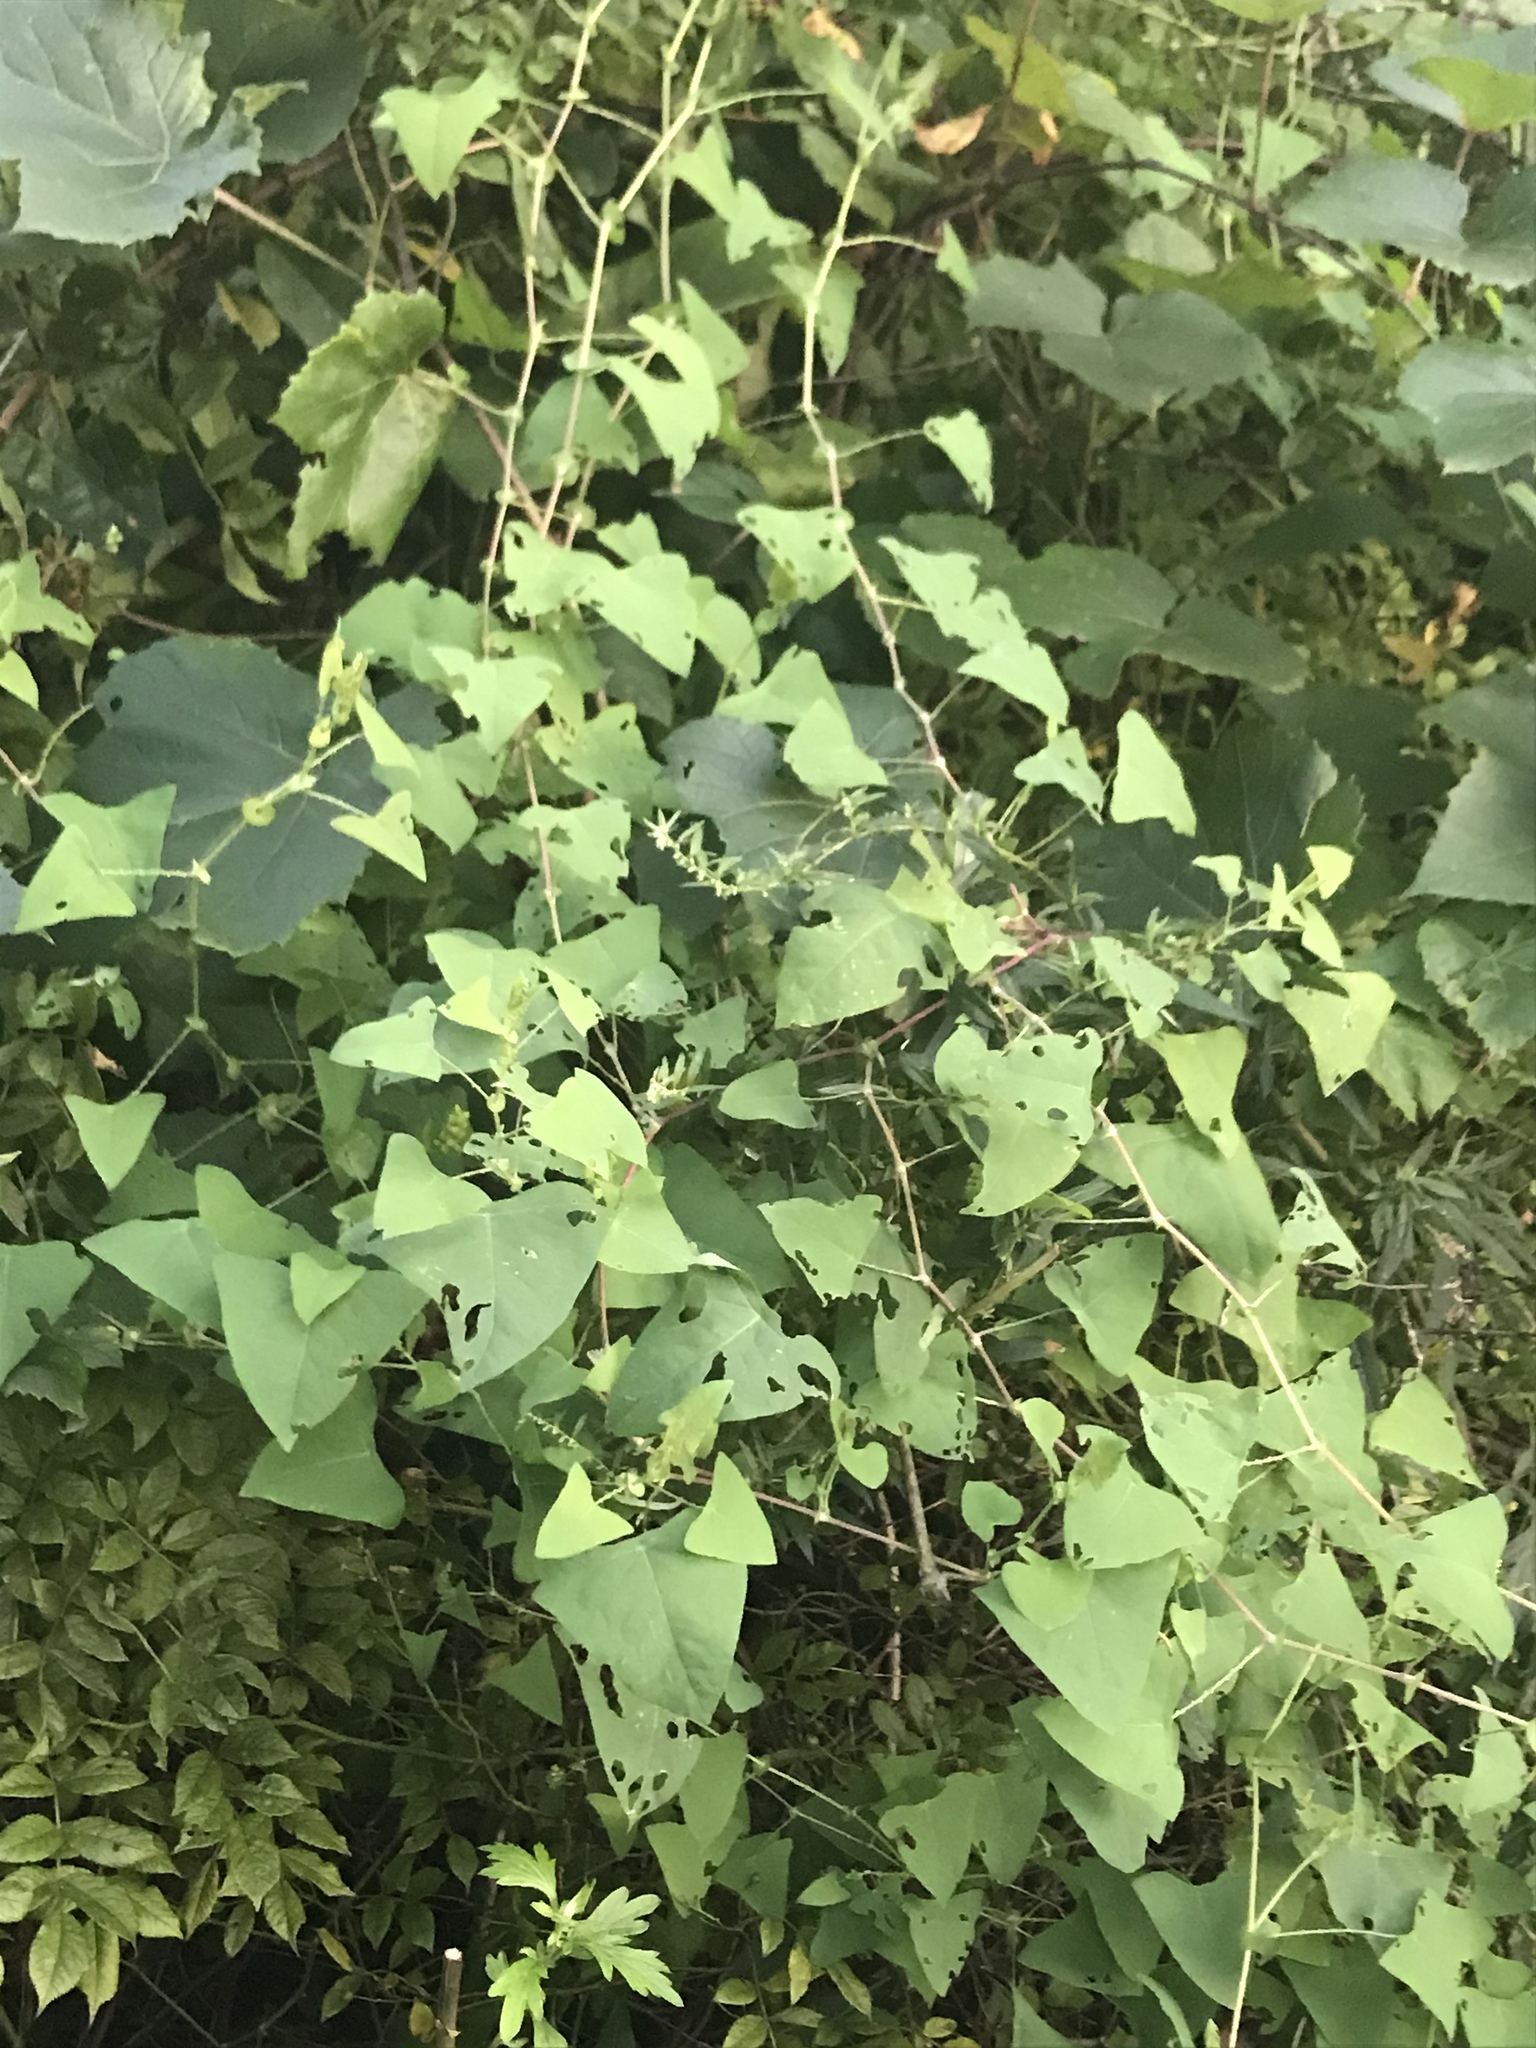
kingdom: Plantae
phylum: Tracheophyta
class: Magnoliopsida
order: Caryophyllales
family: Polygonaceae
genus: Persicaria
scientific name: Persicaria perfoliata
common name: Asiatic tearthumb
